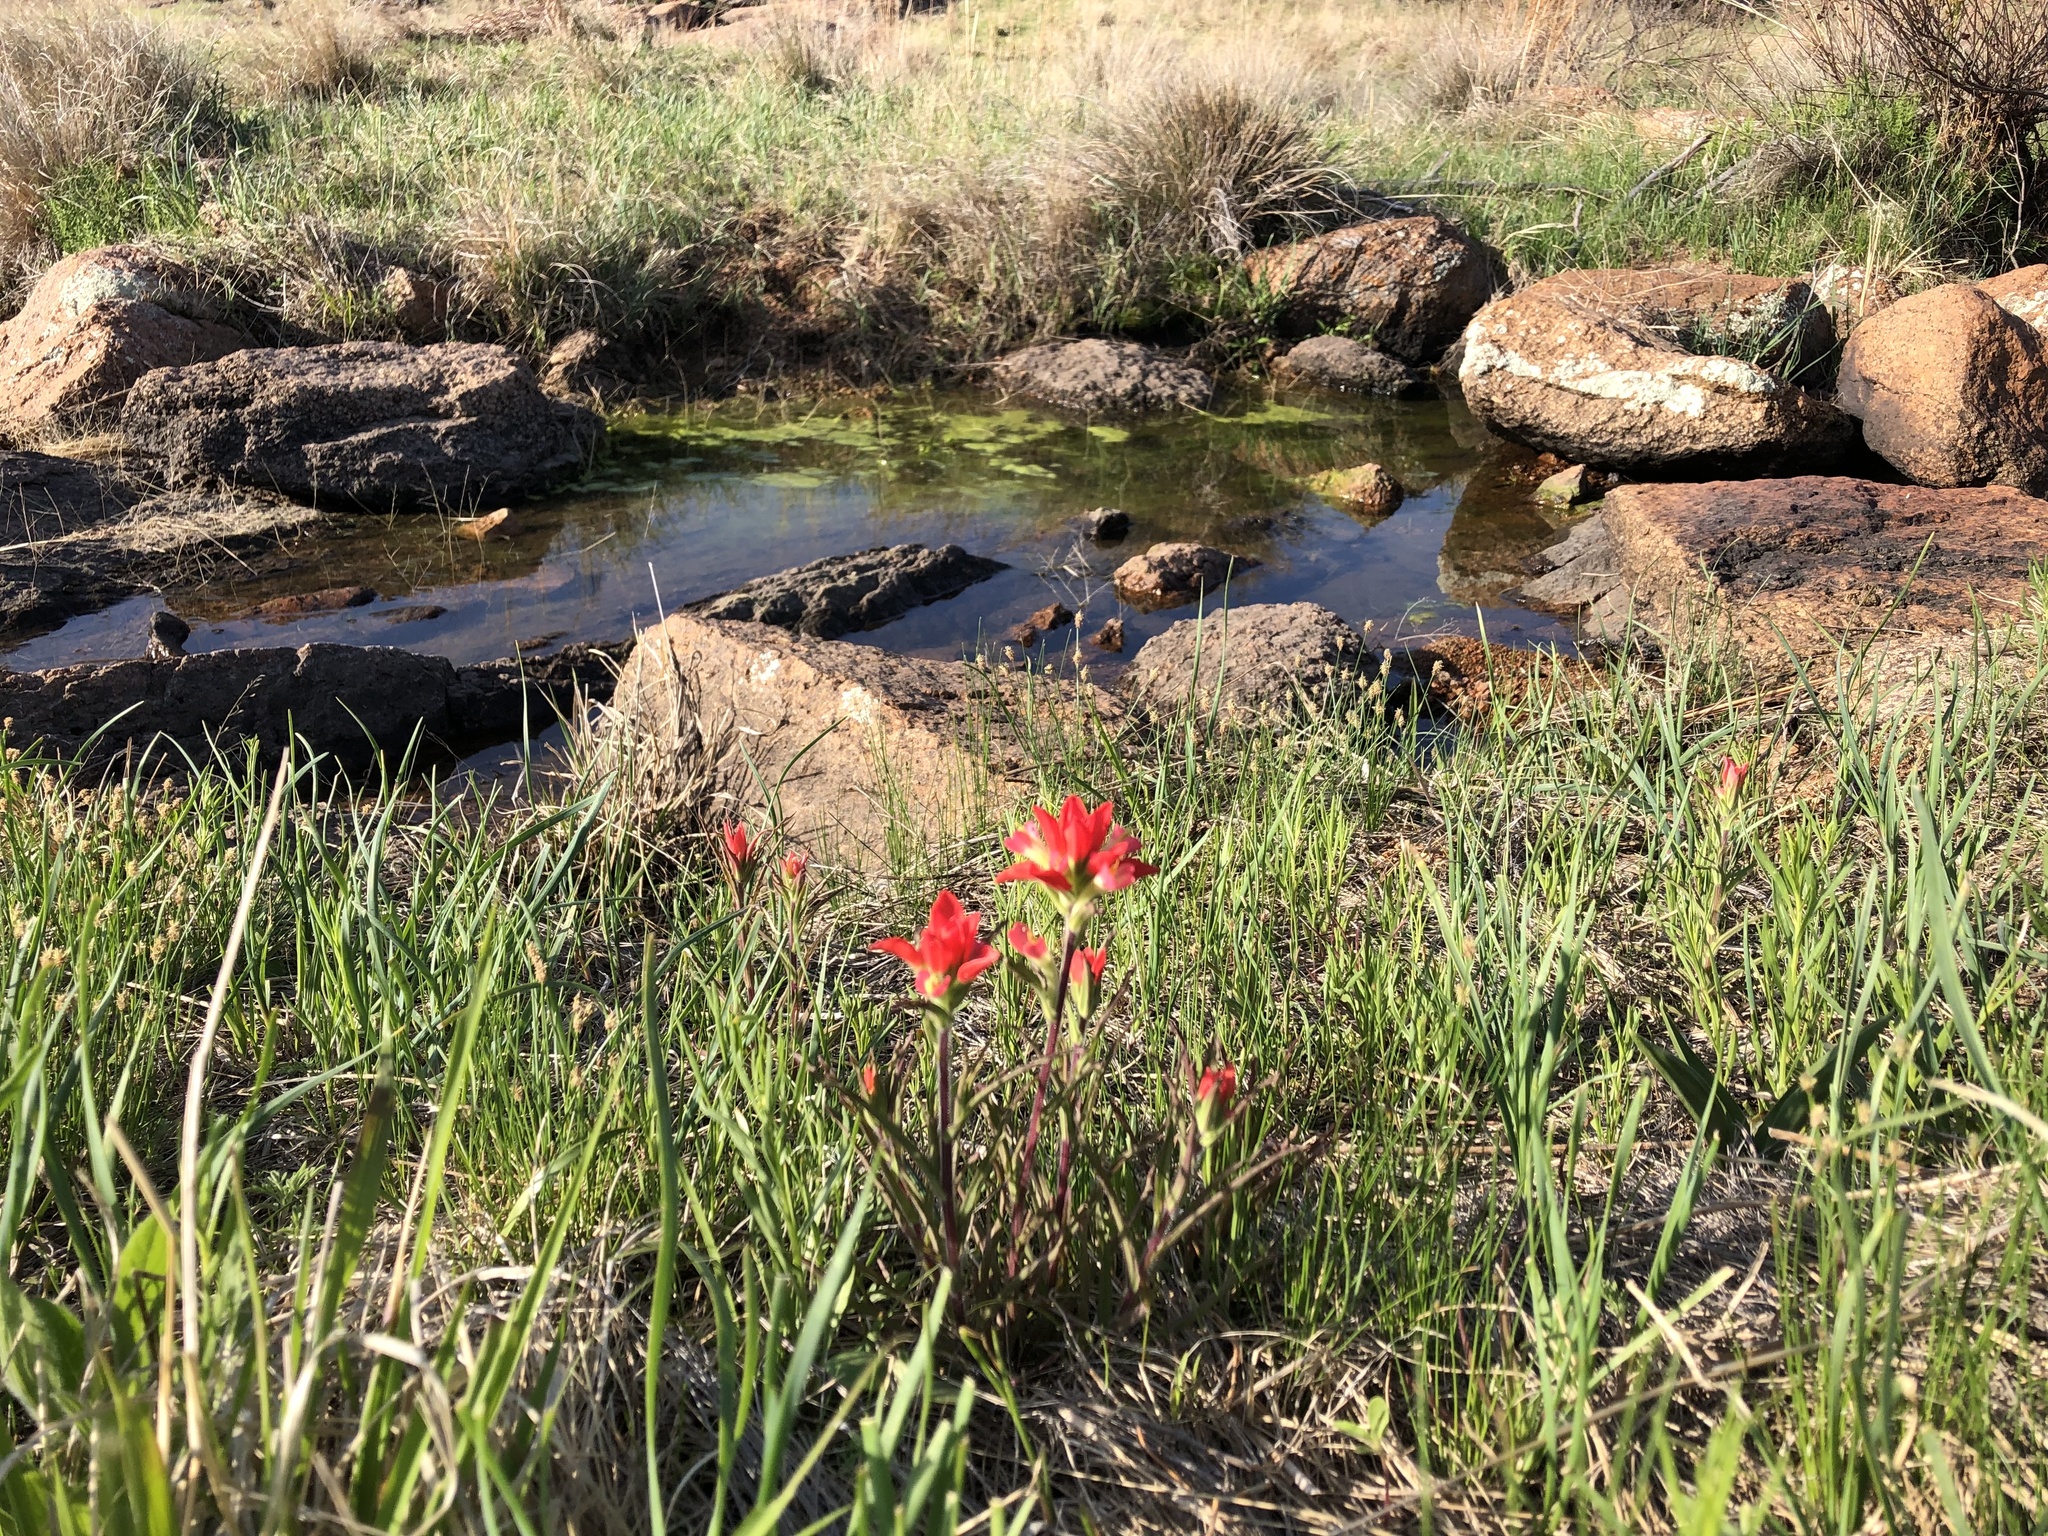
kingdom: Plantae
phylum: Tracheophyta
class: Magnoliopsida
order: Lamiales
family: Orobanchaceae
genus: Castilleja
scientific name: Castilleja indivisa
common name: Texas paintbrush
